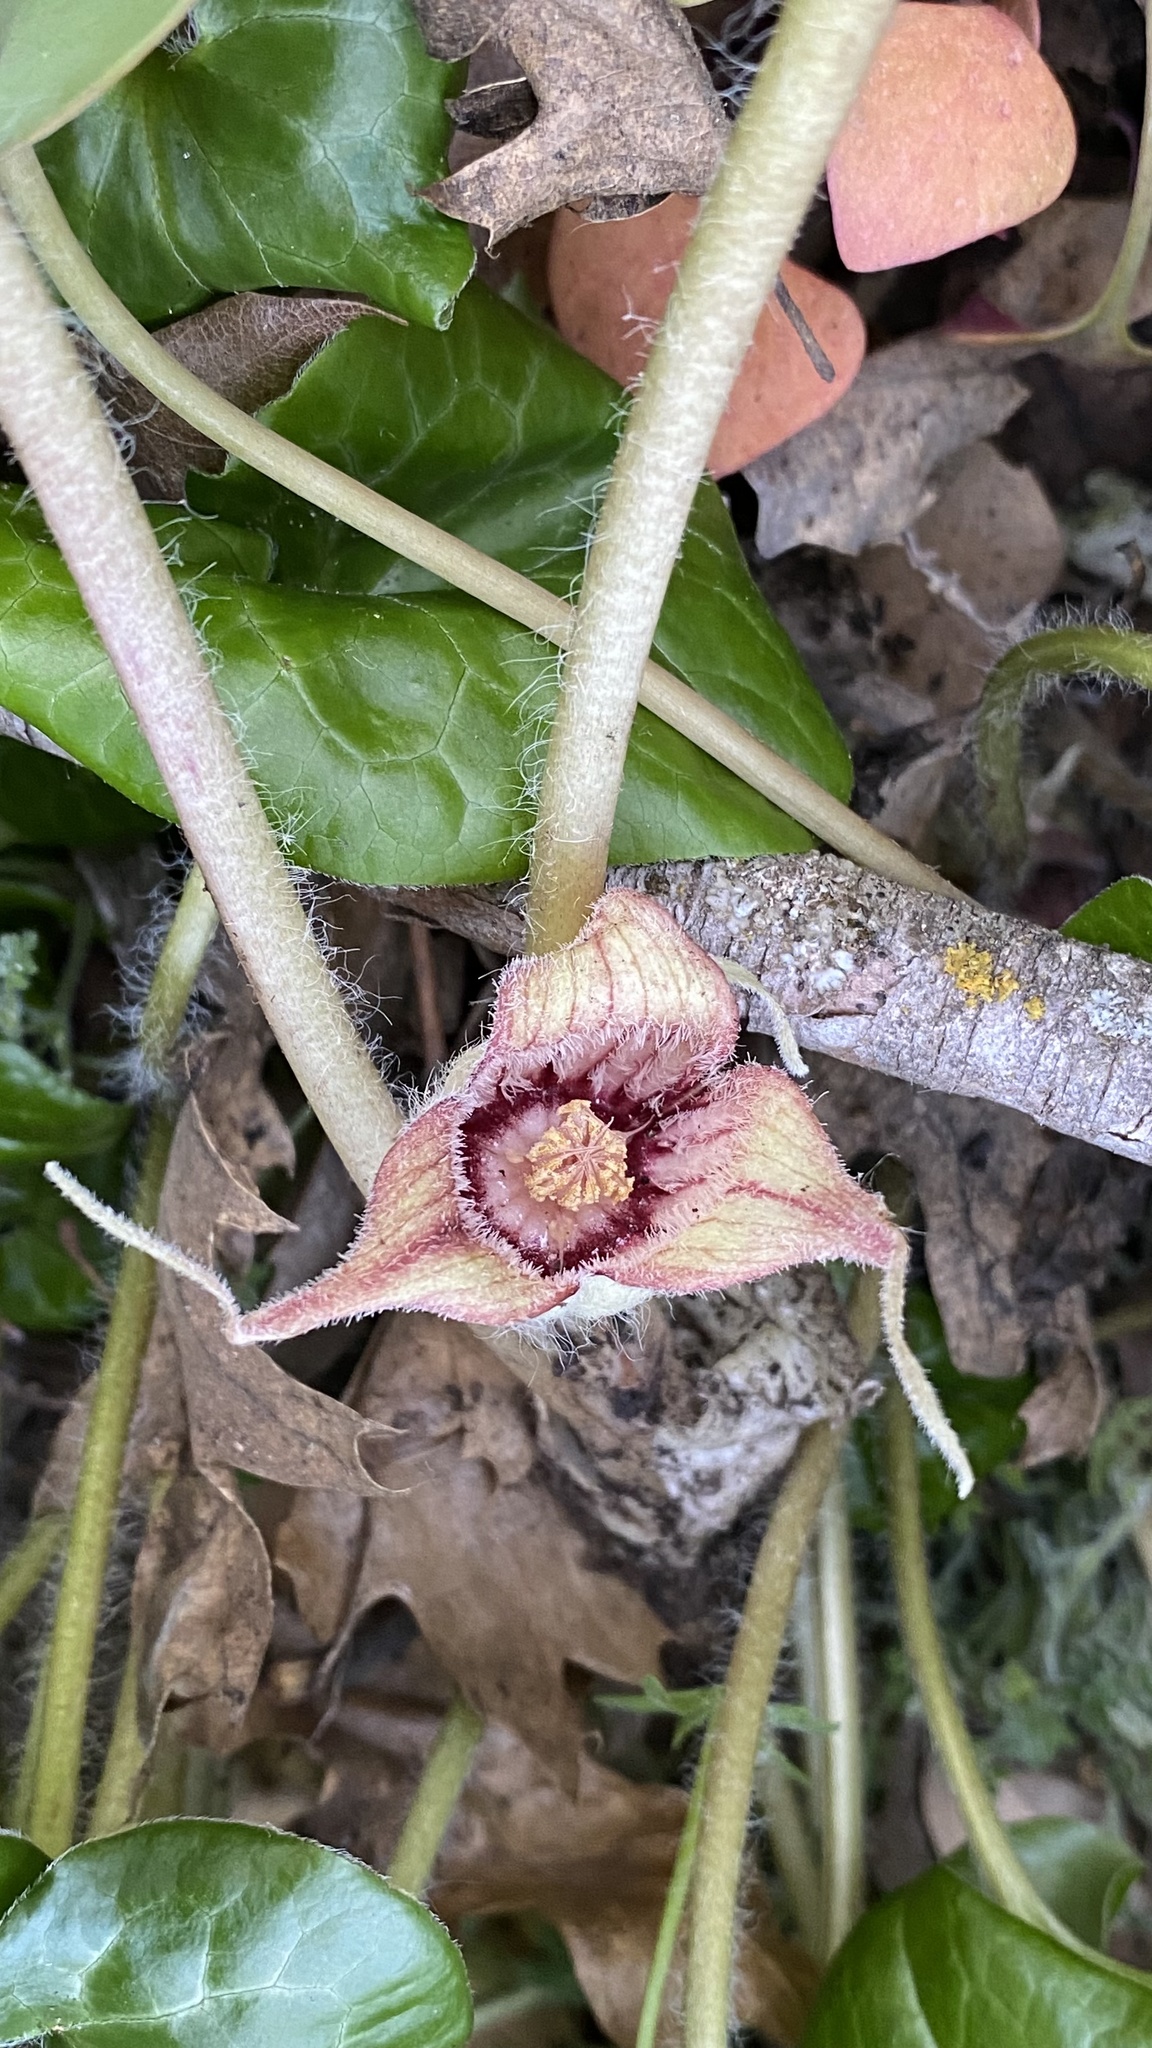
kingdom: Plantae
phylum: Tracheophyta
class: Magnoliopsida
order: Piperales
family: Aristolochiaceae
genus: Asarum
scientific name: Asarum hartwegii
